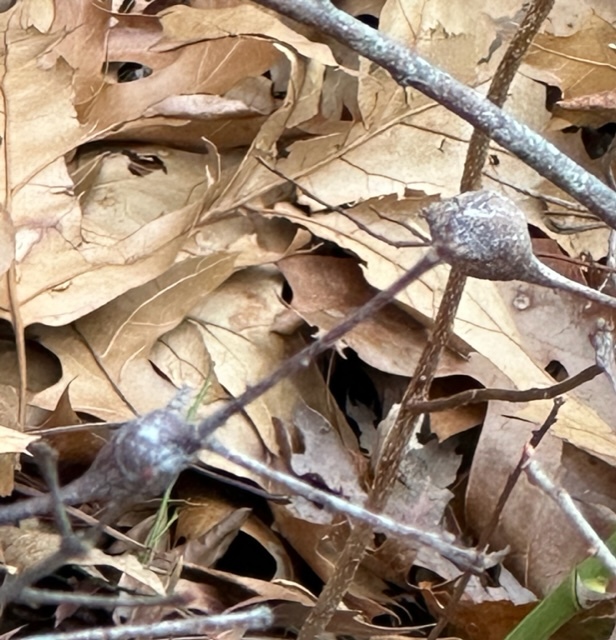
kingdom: Animalia
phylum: Arthropoda
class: Insecta
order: Hymenoptera
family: Cynipidae
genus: Zapatella
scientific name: Zapatella quercusphellos
